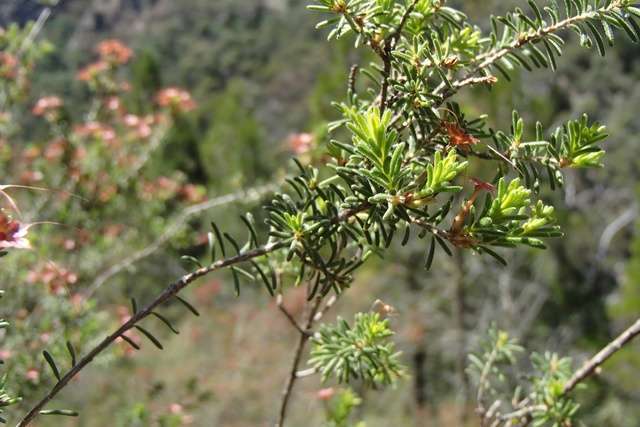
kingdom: Plantae
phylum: Tracheophyta
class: Magnoliopsida
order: Myrtales
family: Myrtaceae
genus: Calytrix
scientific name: Calytrix tetragona
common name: Common fringe myrtle
